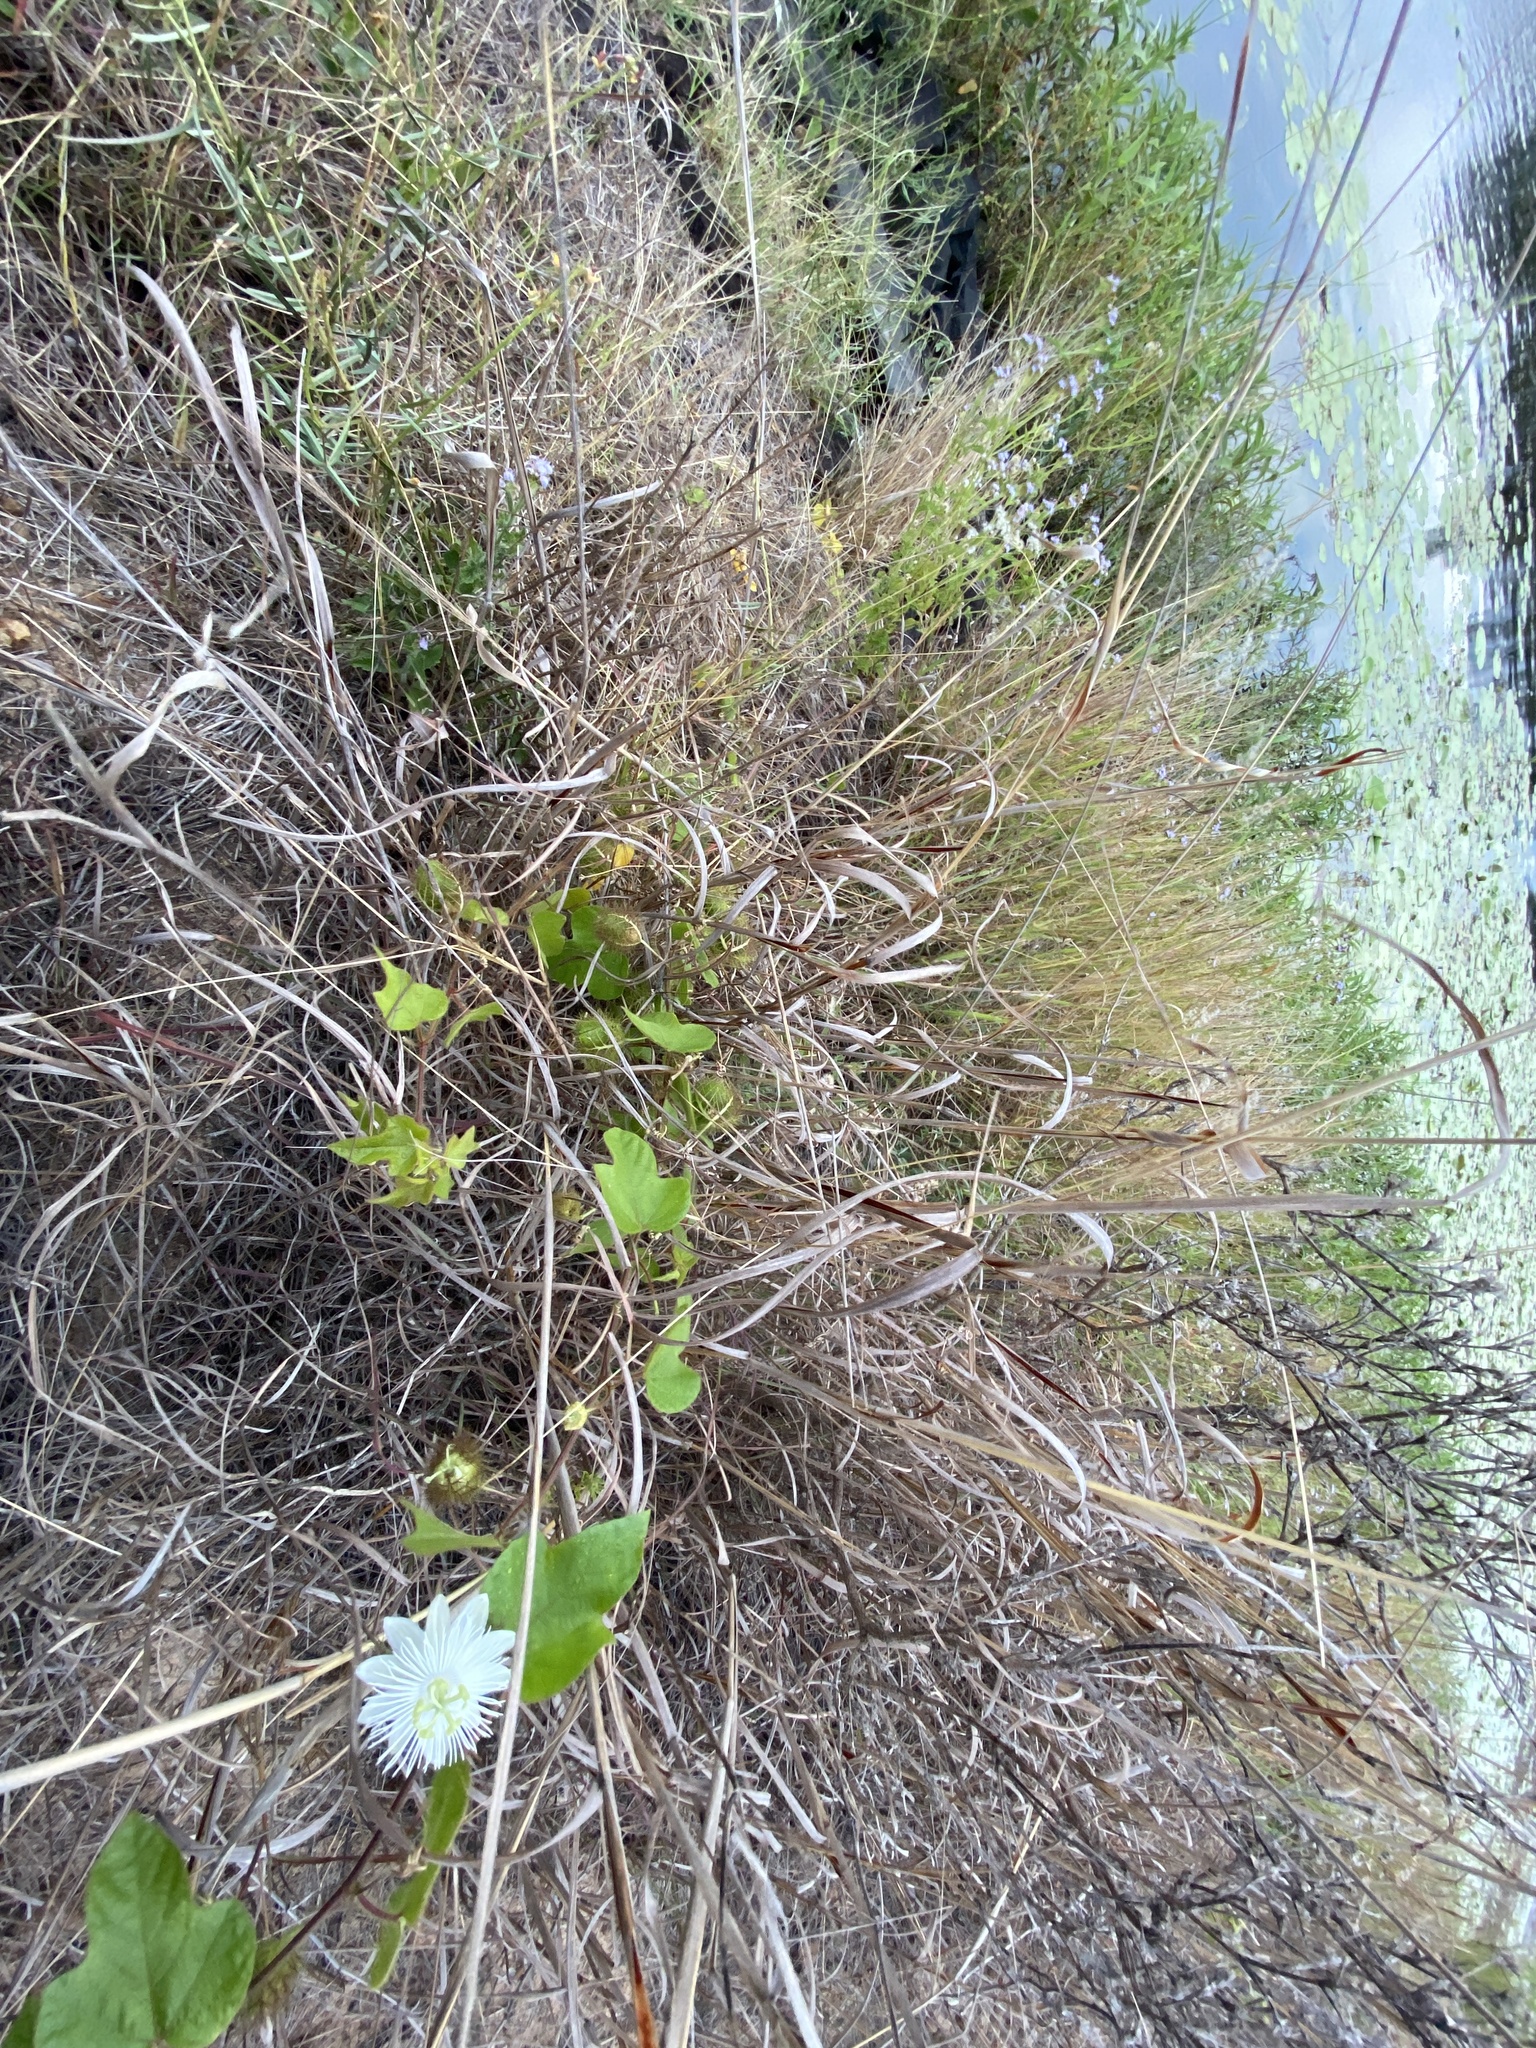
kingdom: Plantae
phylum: Tracheophyta
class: Magnoliopsida
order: Malpighiales
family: Passifloraceae
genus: Passiflora
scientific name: Passiflora foetida
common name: Fetid passionflower
